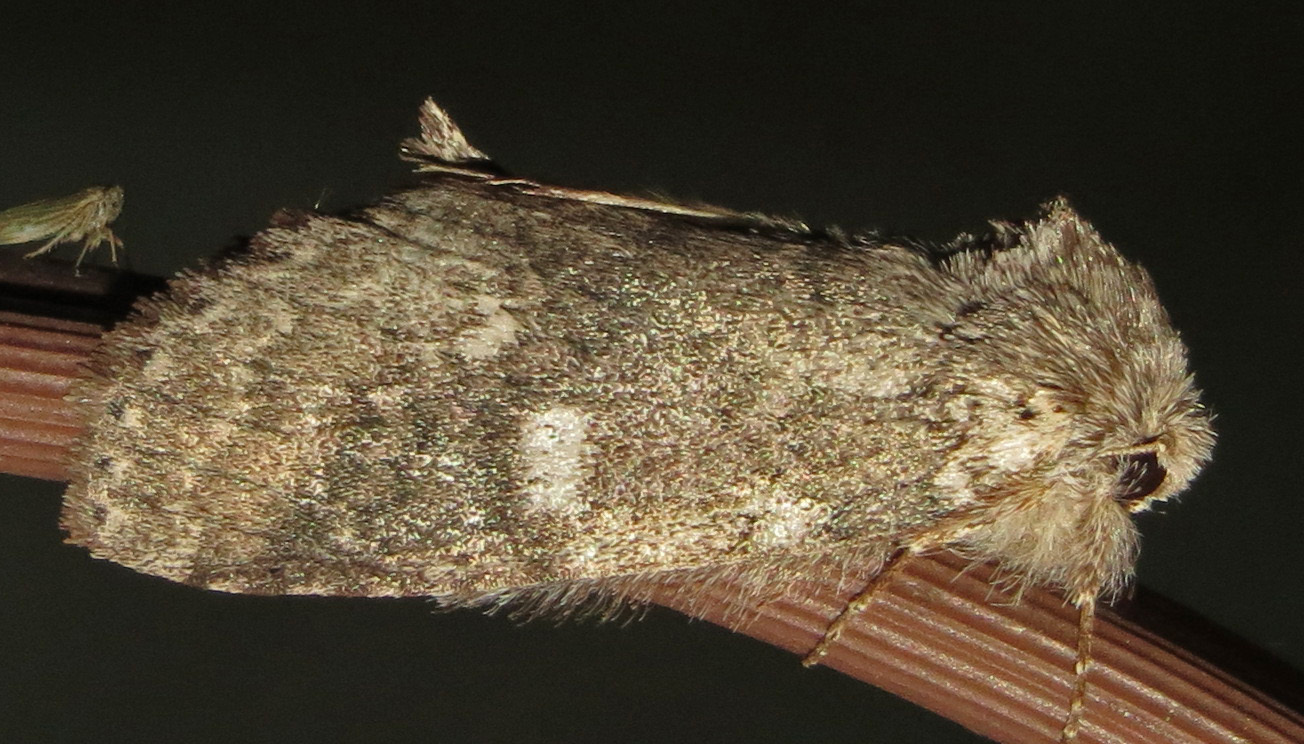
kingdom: Animalia
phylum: Arthropoda
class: Insecta
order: Lepidoptera
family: Notodontidae
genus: Lochmaeus
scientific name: Lochmaeus manteo
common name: Variable oakleaf caterpillar moth
